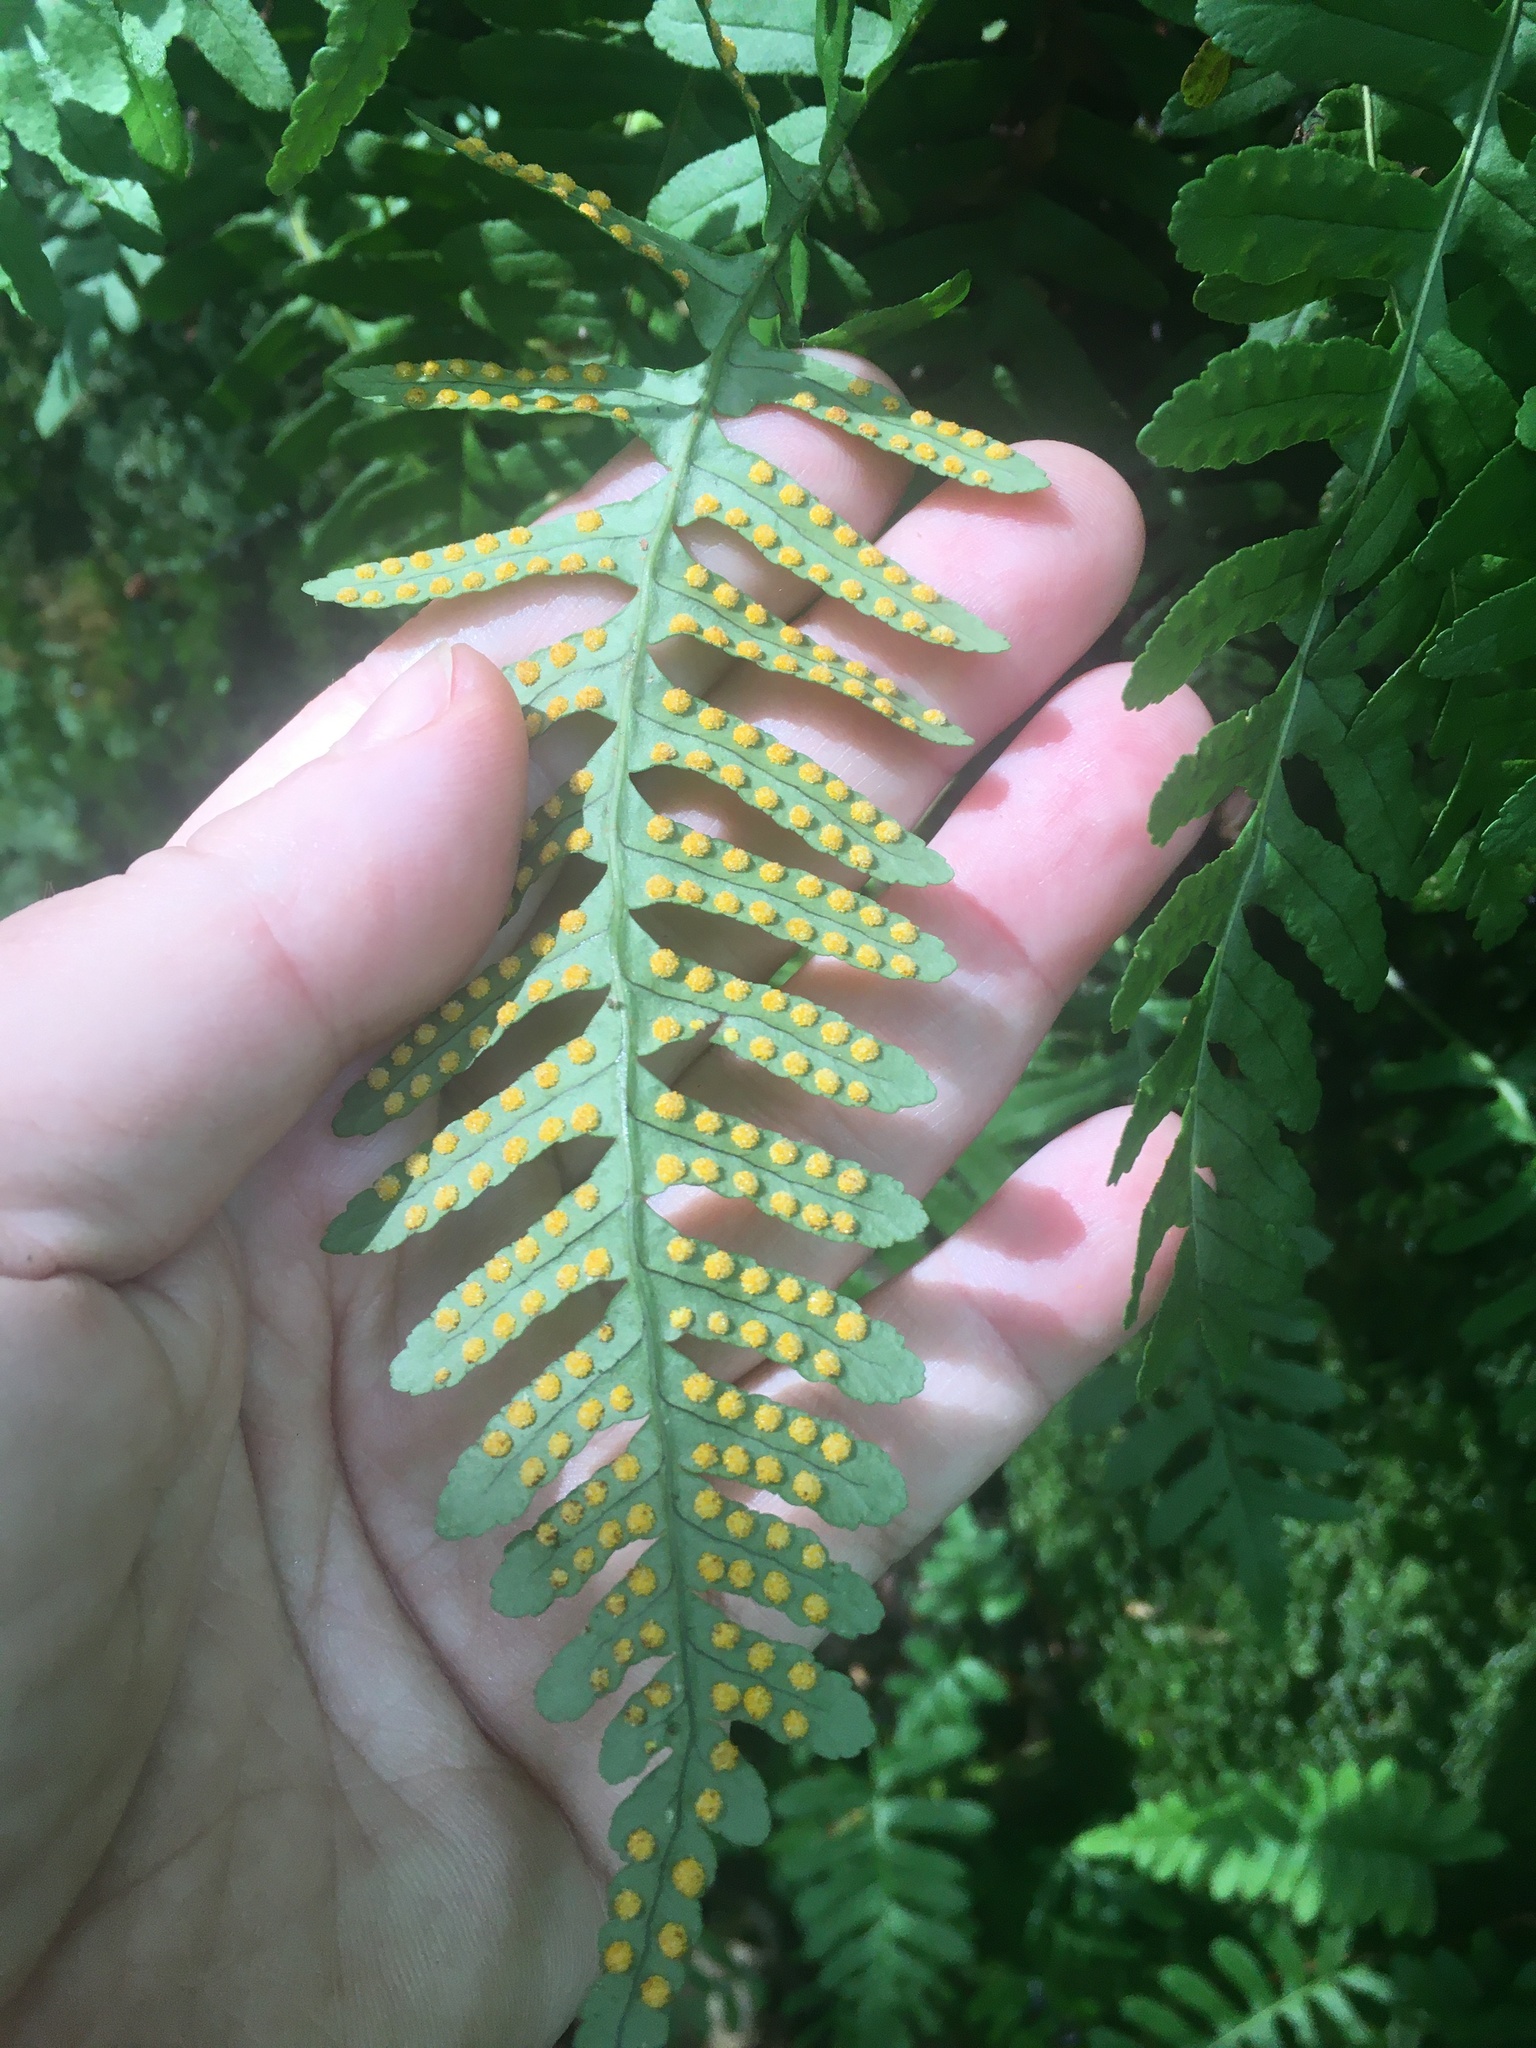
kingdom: Plantae
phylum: Tracheophyta
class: Polypodiopsida
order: Polypodiales
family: Polypodiaceae
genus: Polypodium
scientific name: Polypodium virginianum
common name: American wall fern
